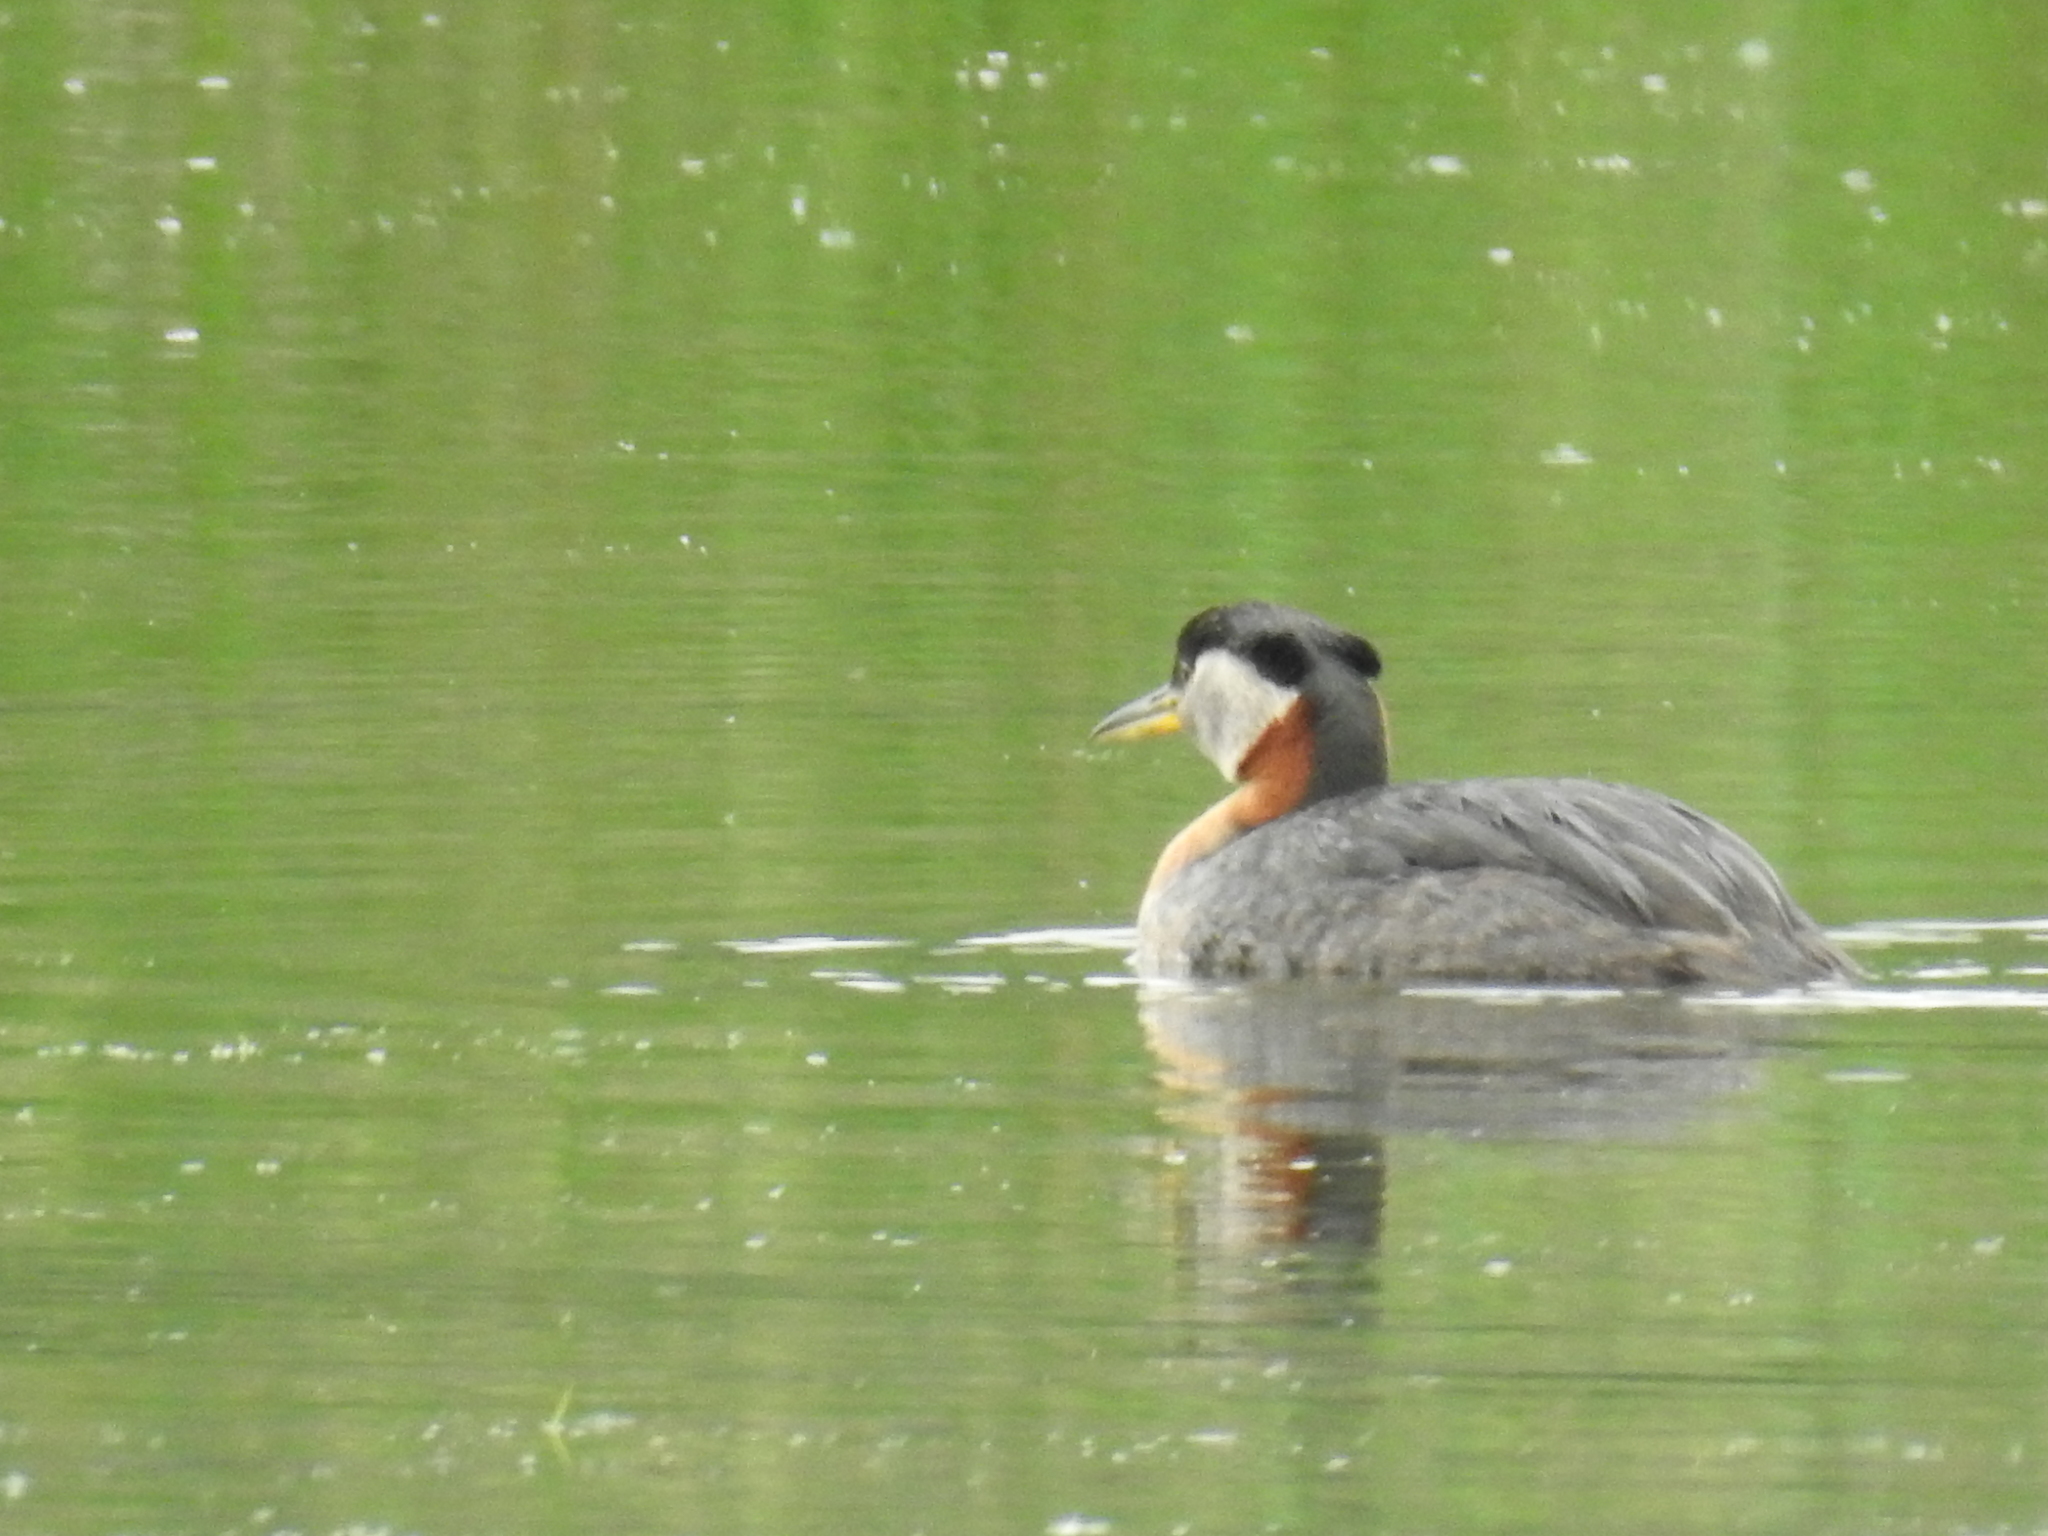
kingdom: Animalia
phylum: Chordata
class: Aves
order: Podicipediformes
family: Podicipedidae
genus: Podiceps
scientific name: Podiceps grisegena
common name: Red-necked grebe
